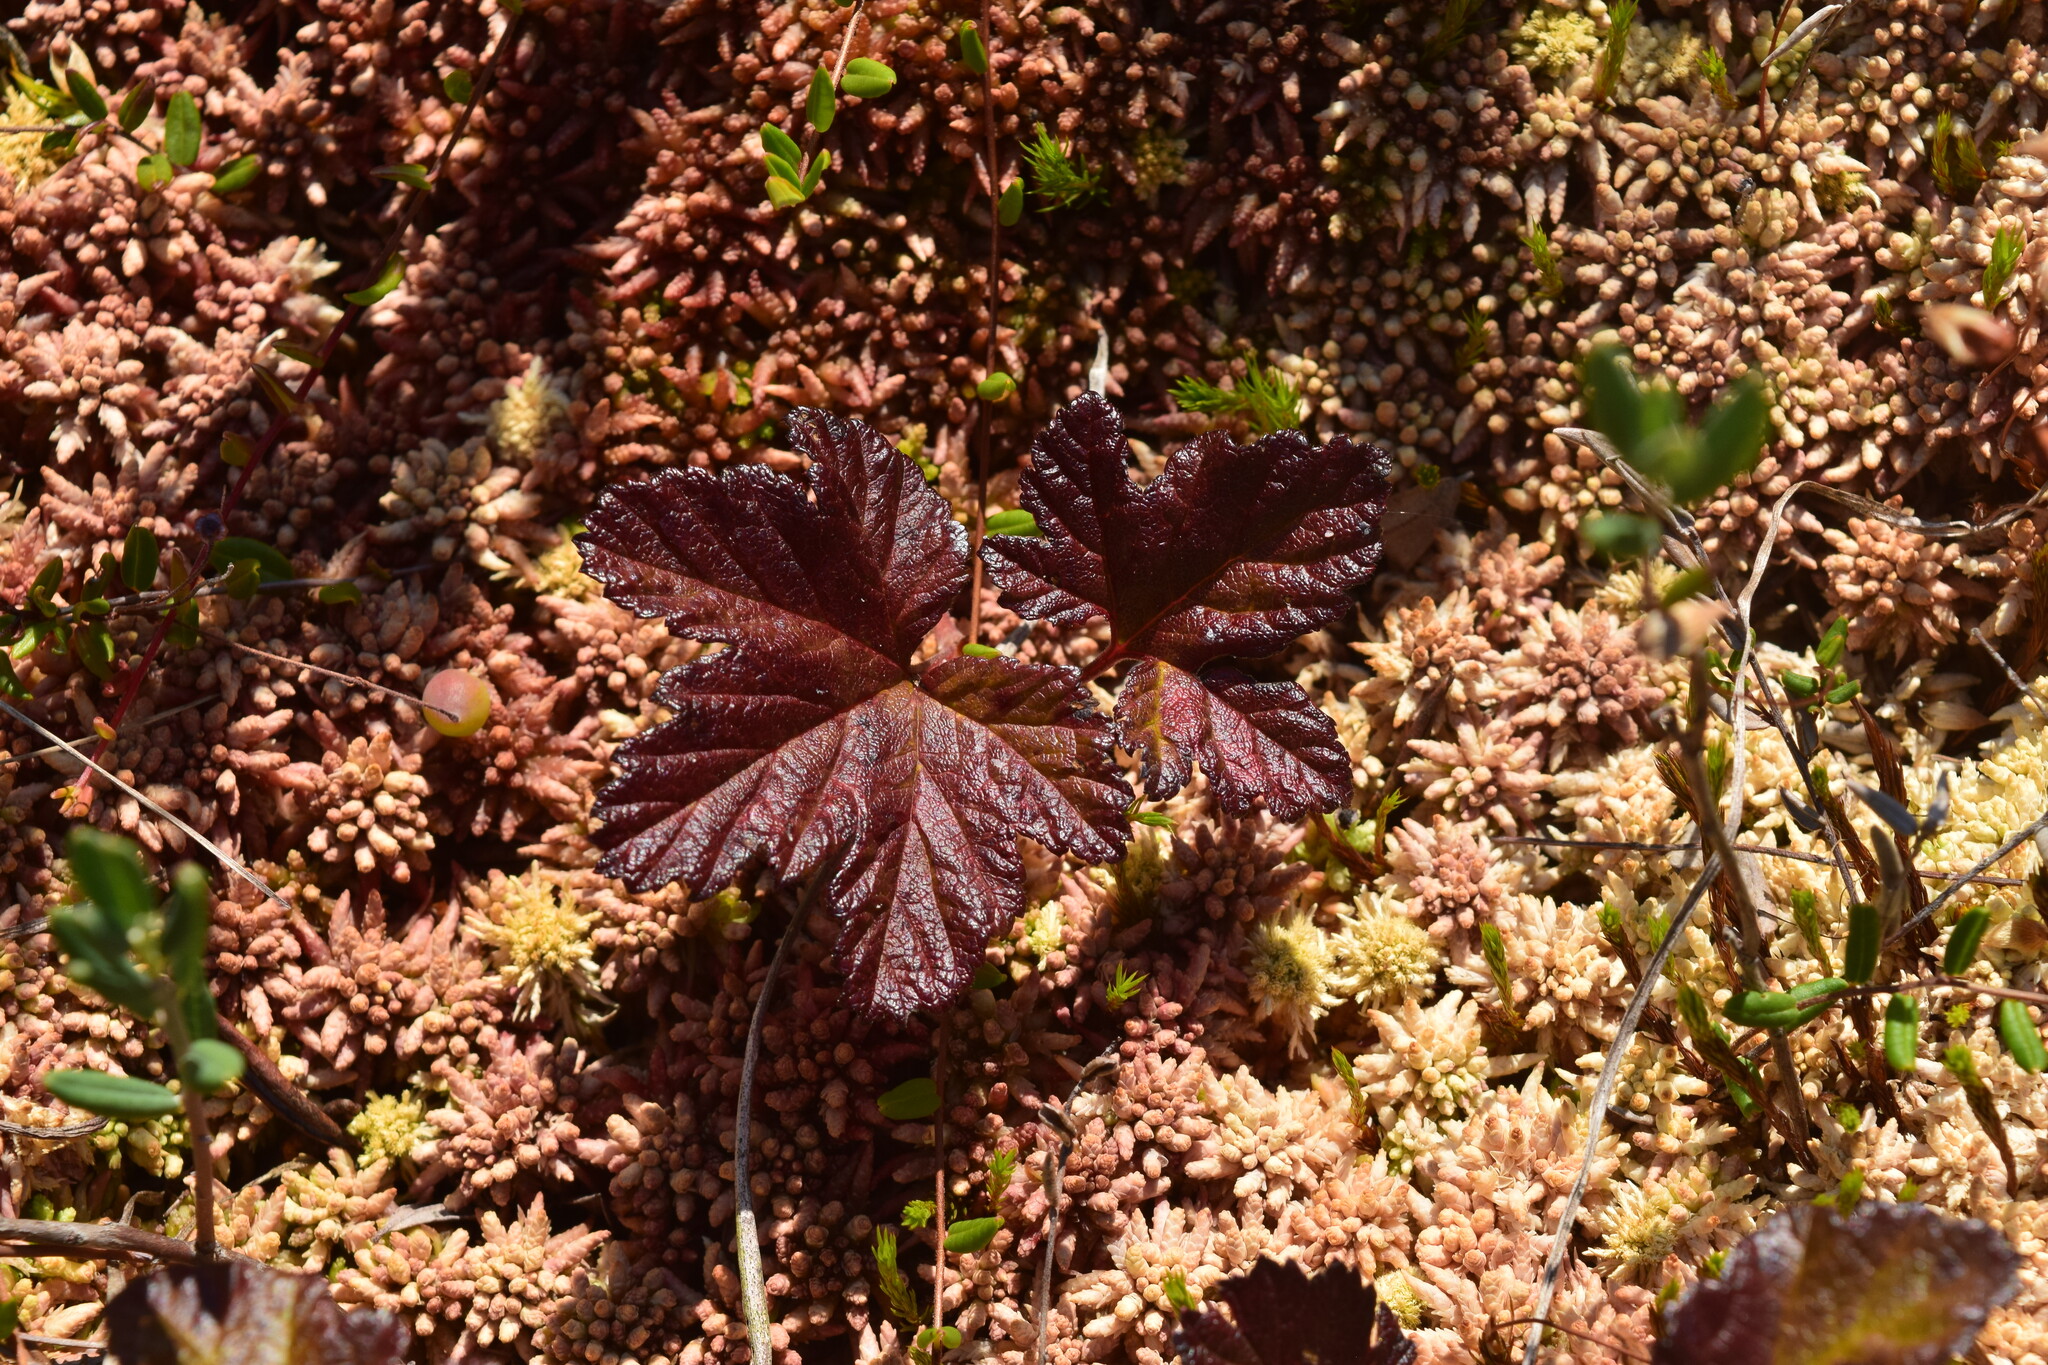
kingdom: Plantae
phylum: Tracheophyta
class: Magnoliopsida
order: Rosales
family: Rosaceae
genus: Rubus
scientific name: Rubus chamaemorus
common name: Cloudberry
